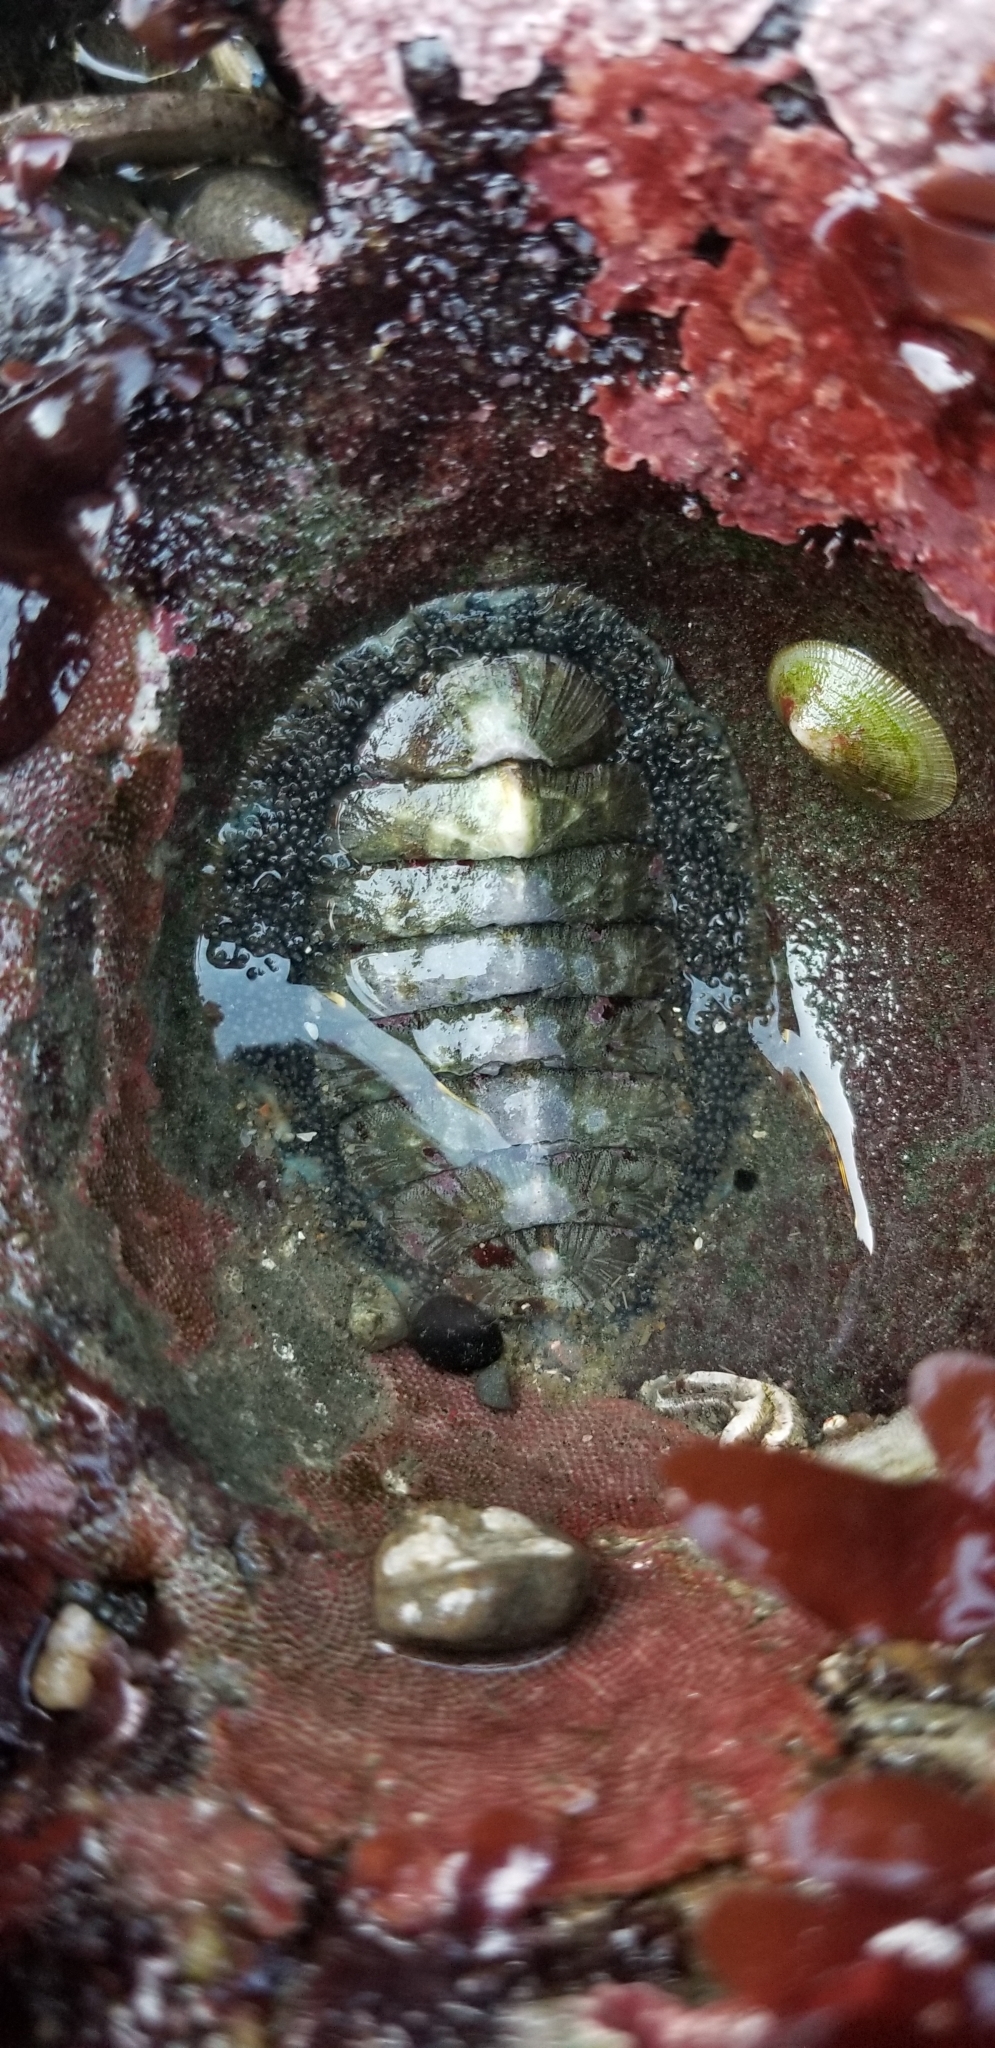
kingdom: Animalia
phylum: Mollusca
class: Polyplacophora
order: Chitonida
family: Mopaliidae
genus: Mopalia
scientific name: Mopalia lignosa
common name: Woody chiton
